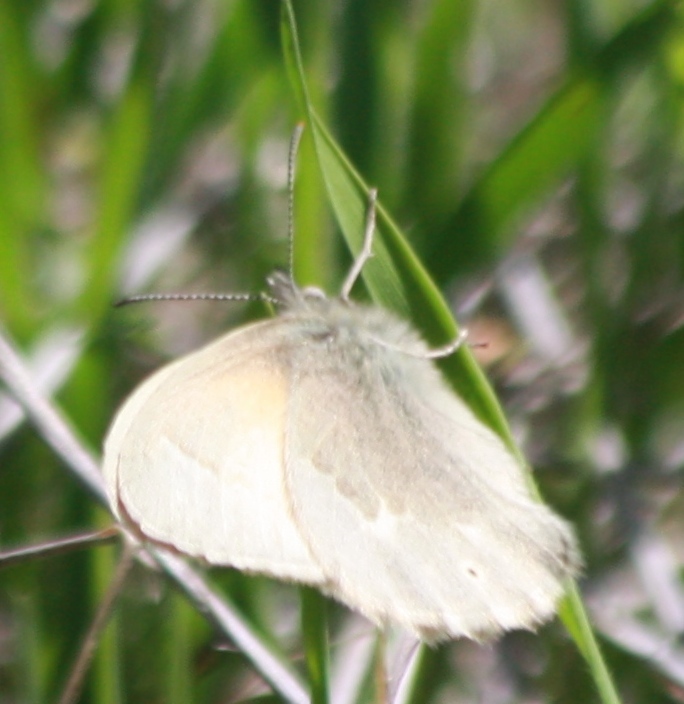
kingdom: Animalia
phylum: Arthropoda
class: Insecta
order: Lepidoptera
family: Nymphalidae
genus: Coenonympha
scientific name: Coenonympha california
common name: Common ringlet
